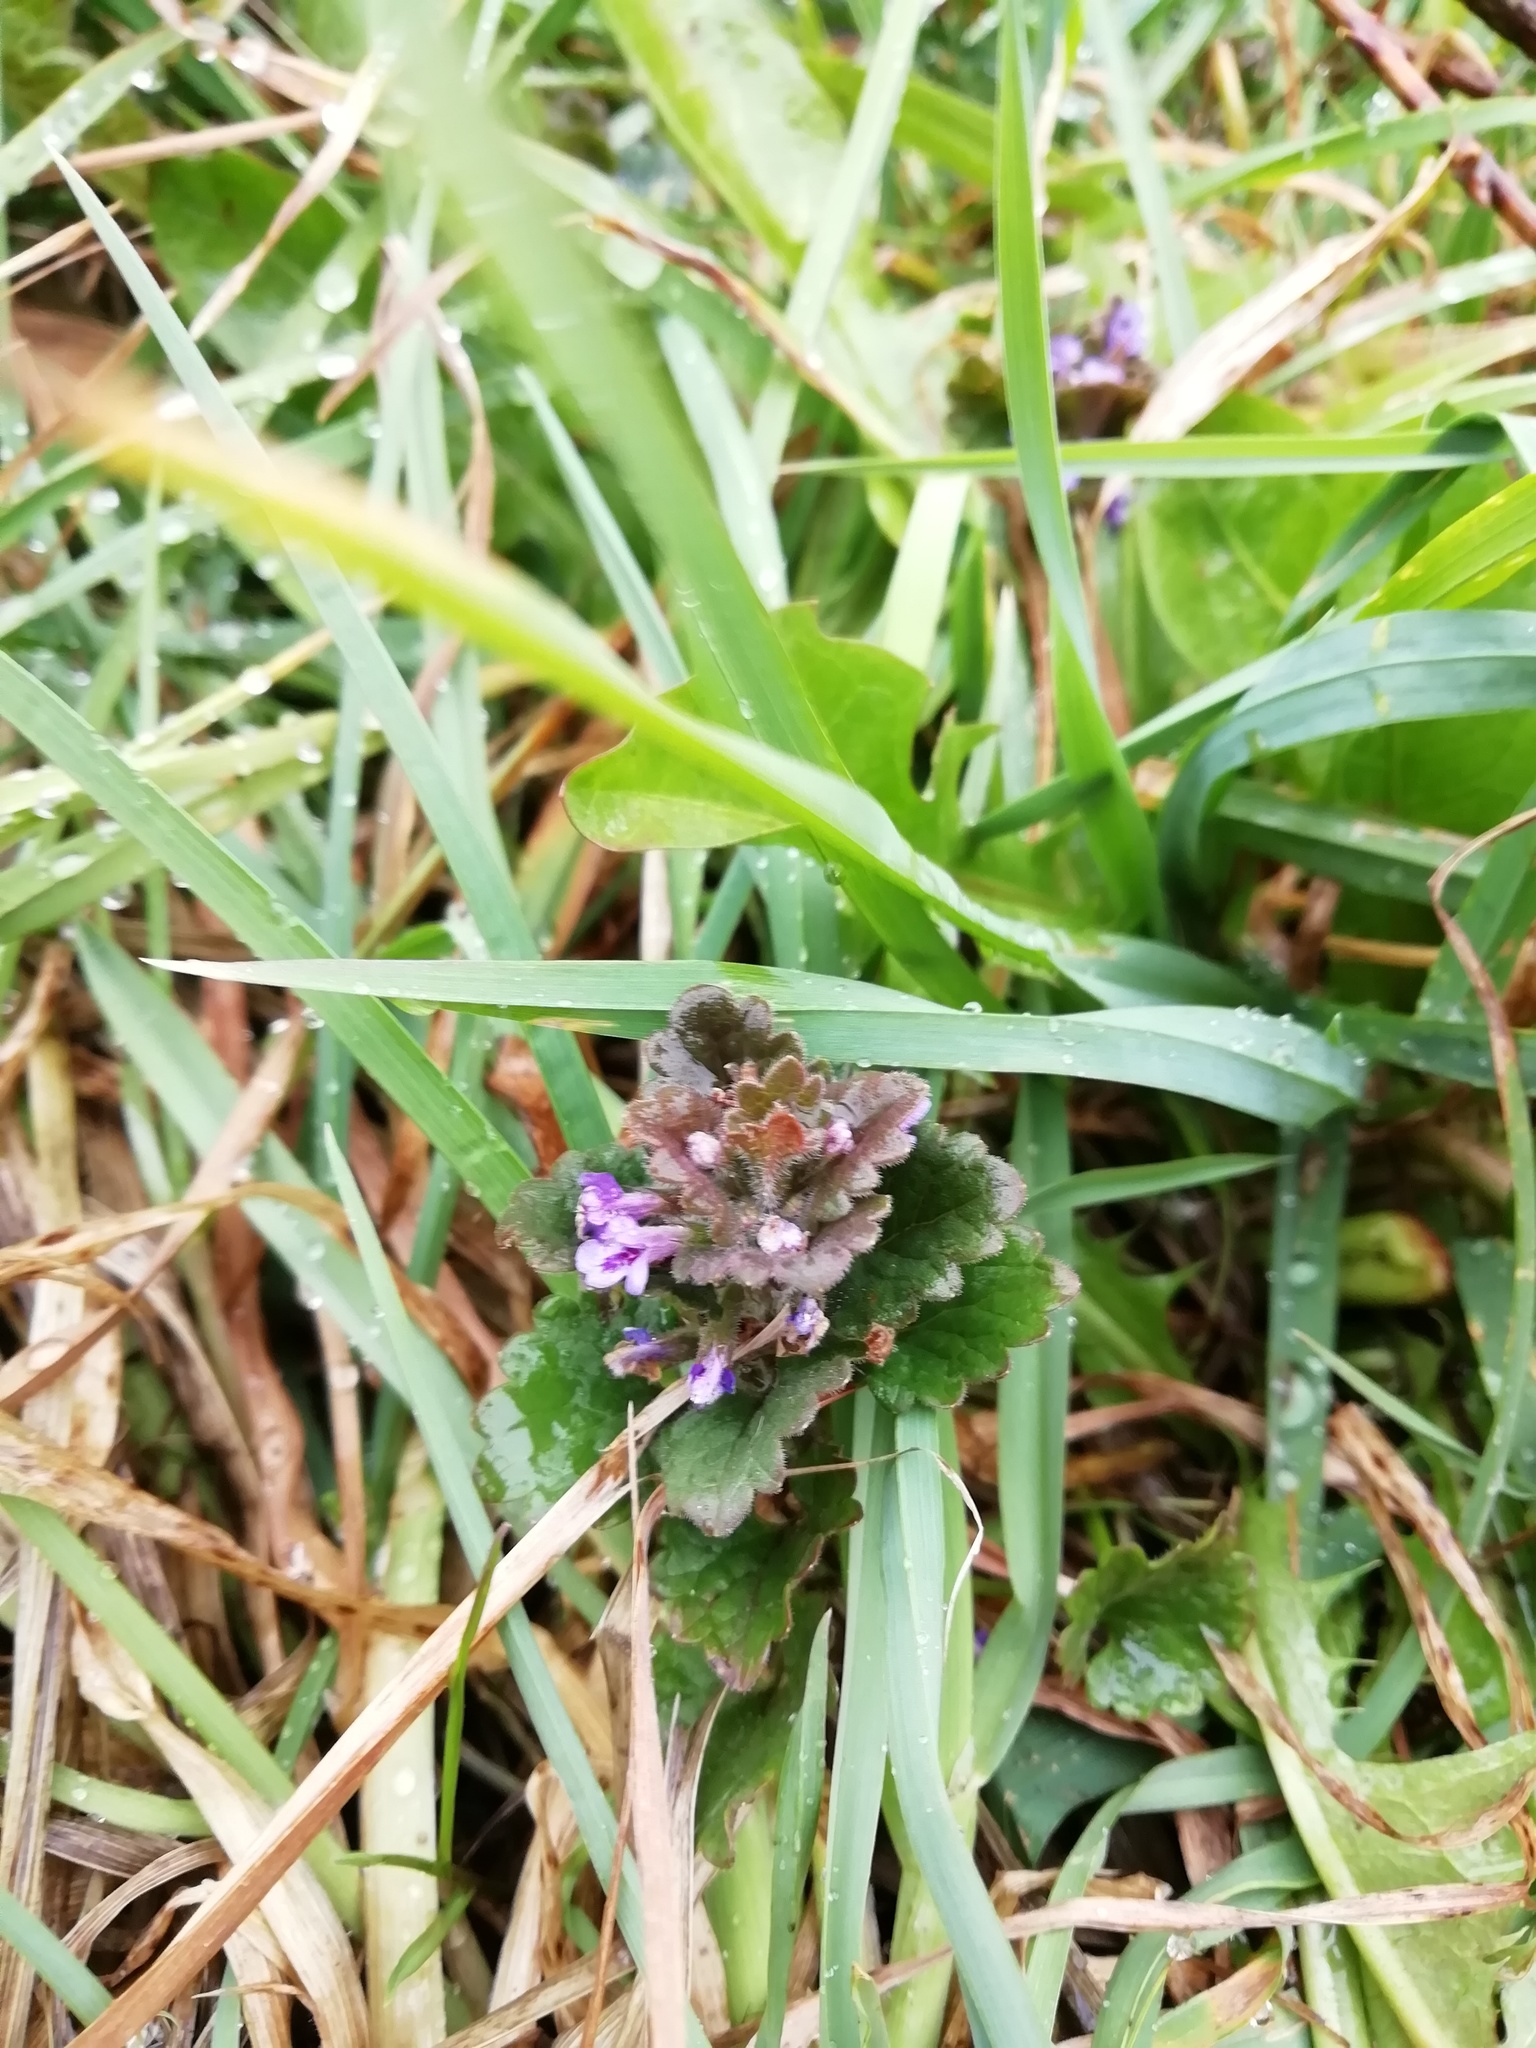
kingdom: Plantae
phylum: Tracheophyta
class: Magnoliopsida
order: Lamiales
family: Lamiaceae
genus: Glechoma
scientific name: Glechoma hederacea
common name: Ground ivy
